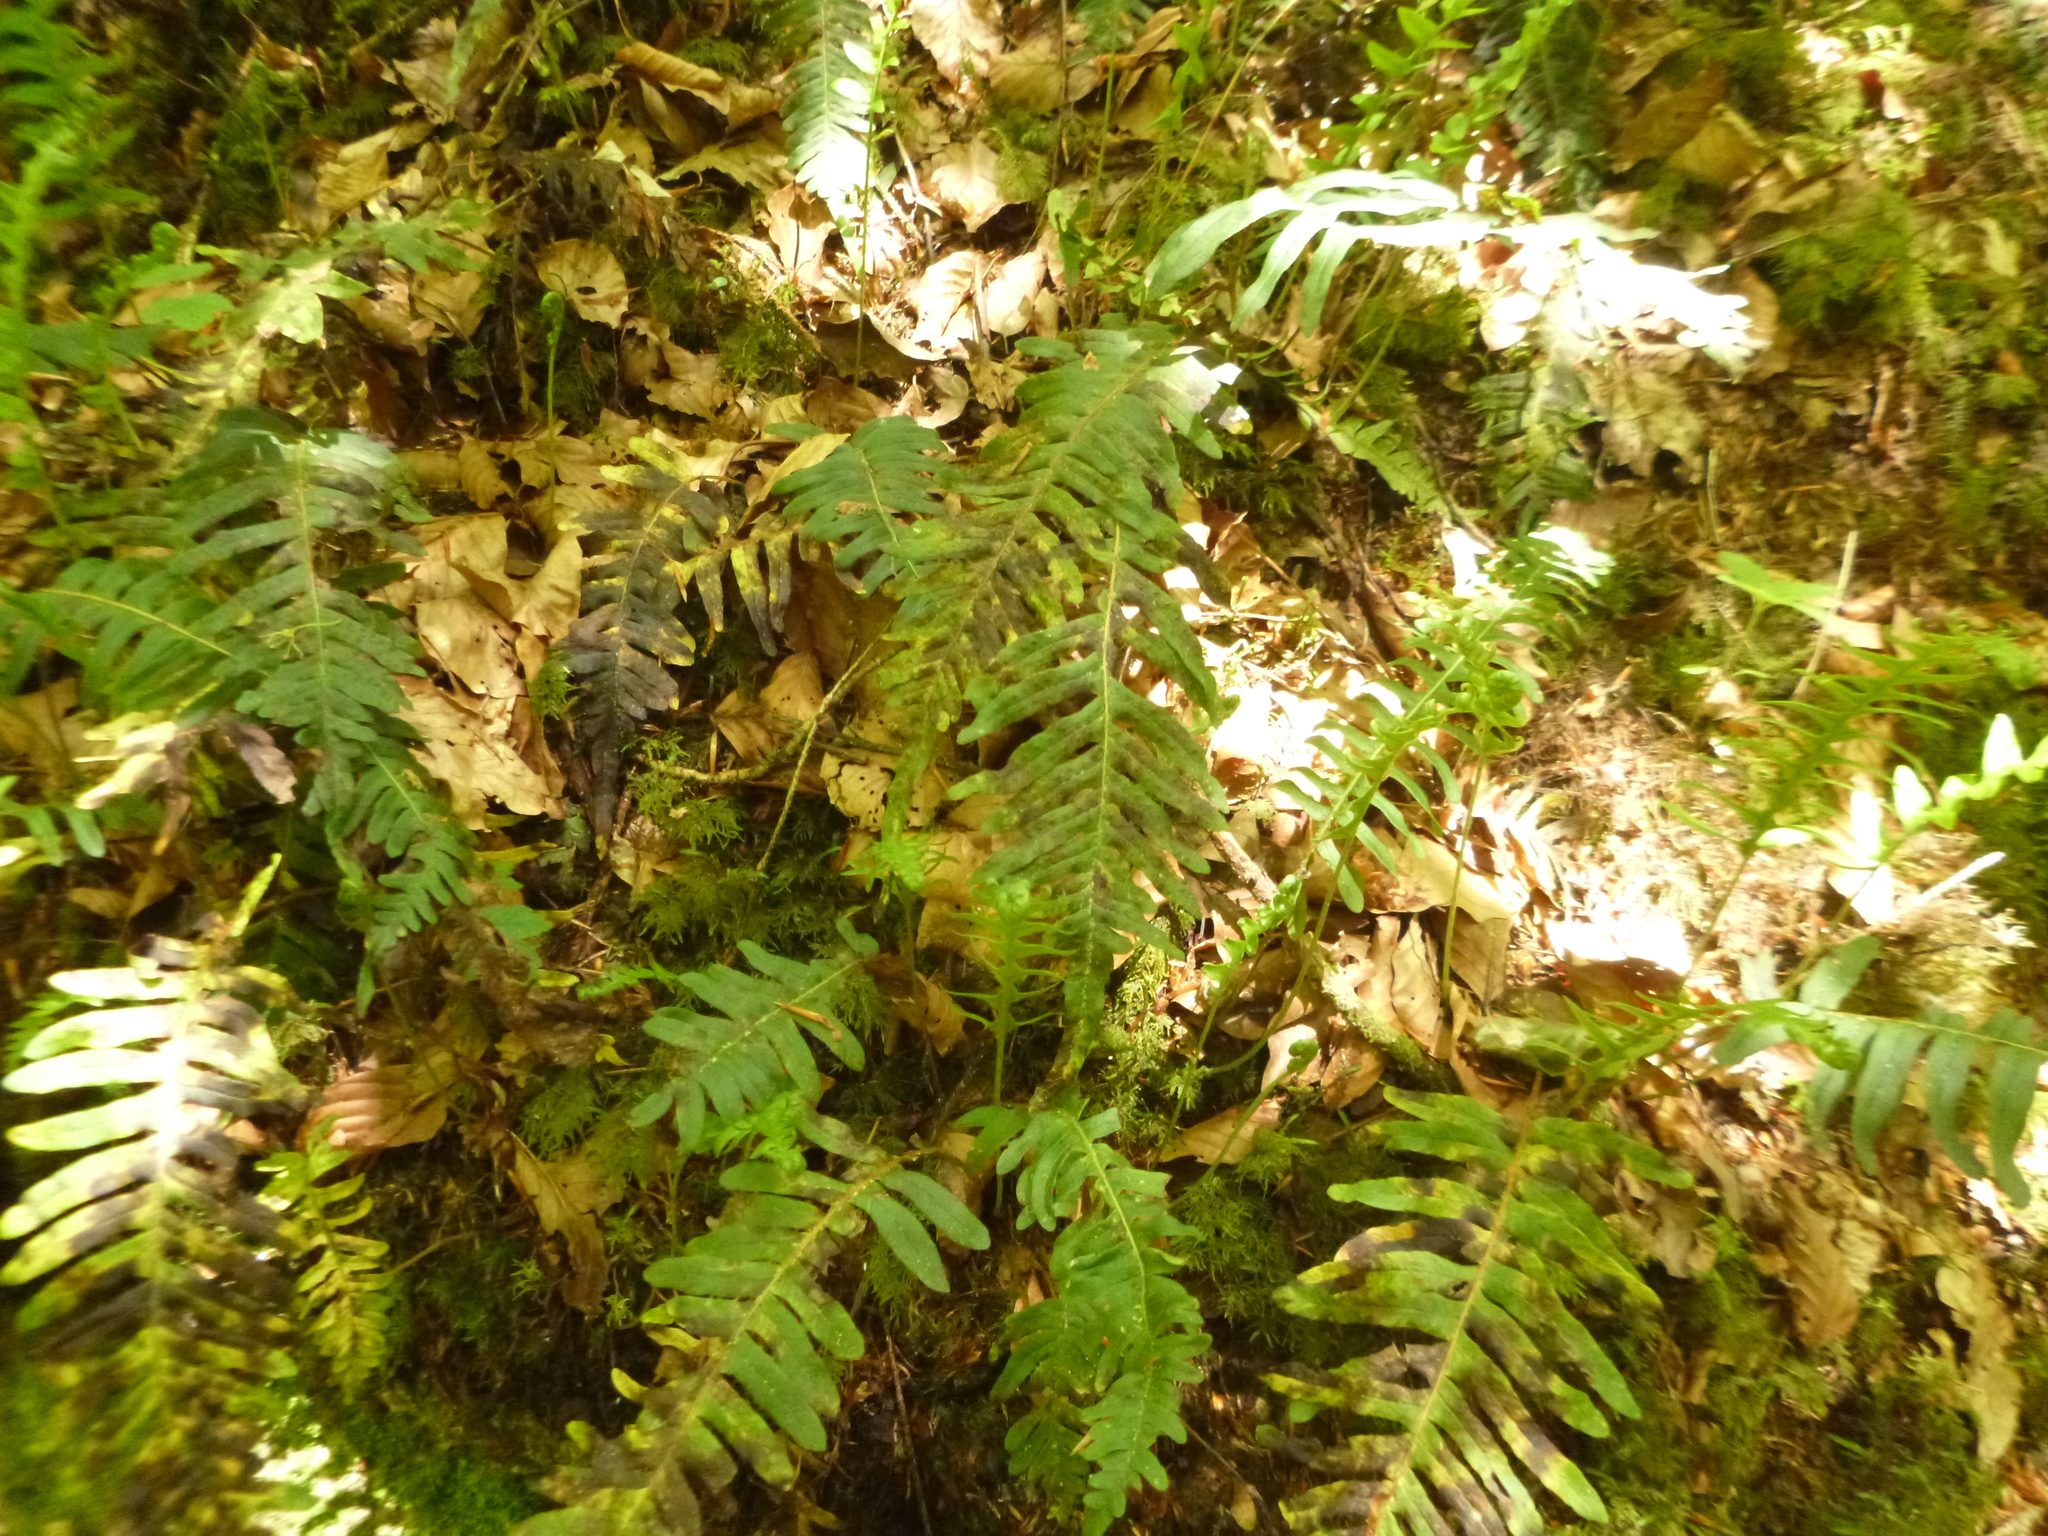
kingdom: Plantae
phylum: Tracheophyta
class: Polypodiopsida
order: Polypodiales
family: Polypodiaceae
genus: Polypodium
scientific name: Polypodium vulgare
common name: Common polypody
